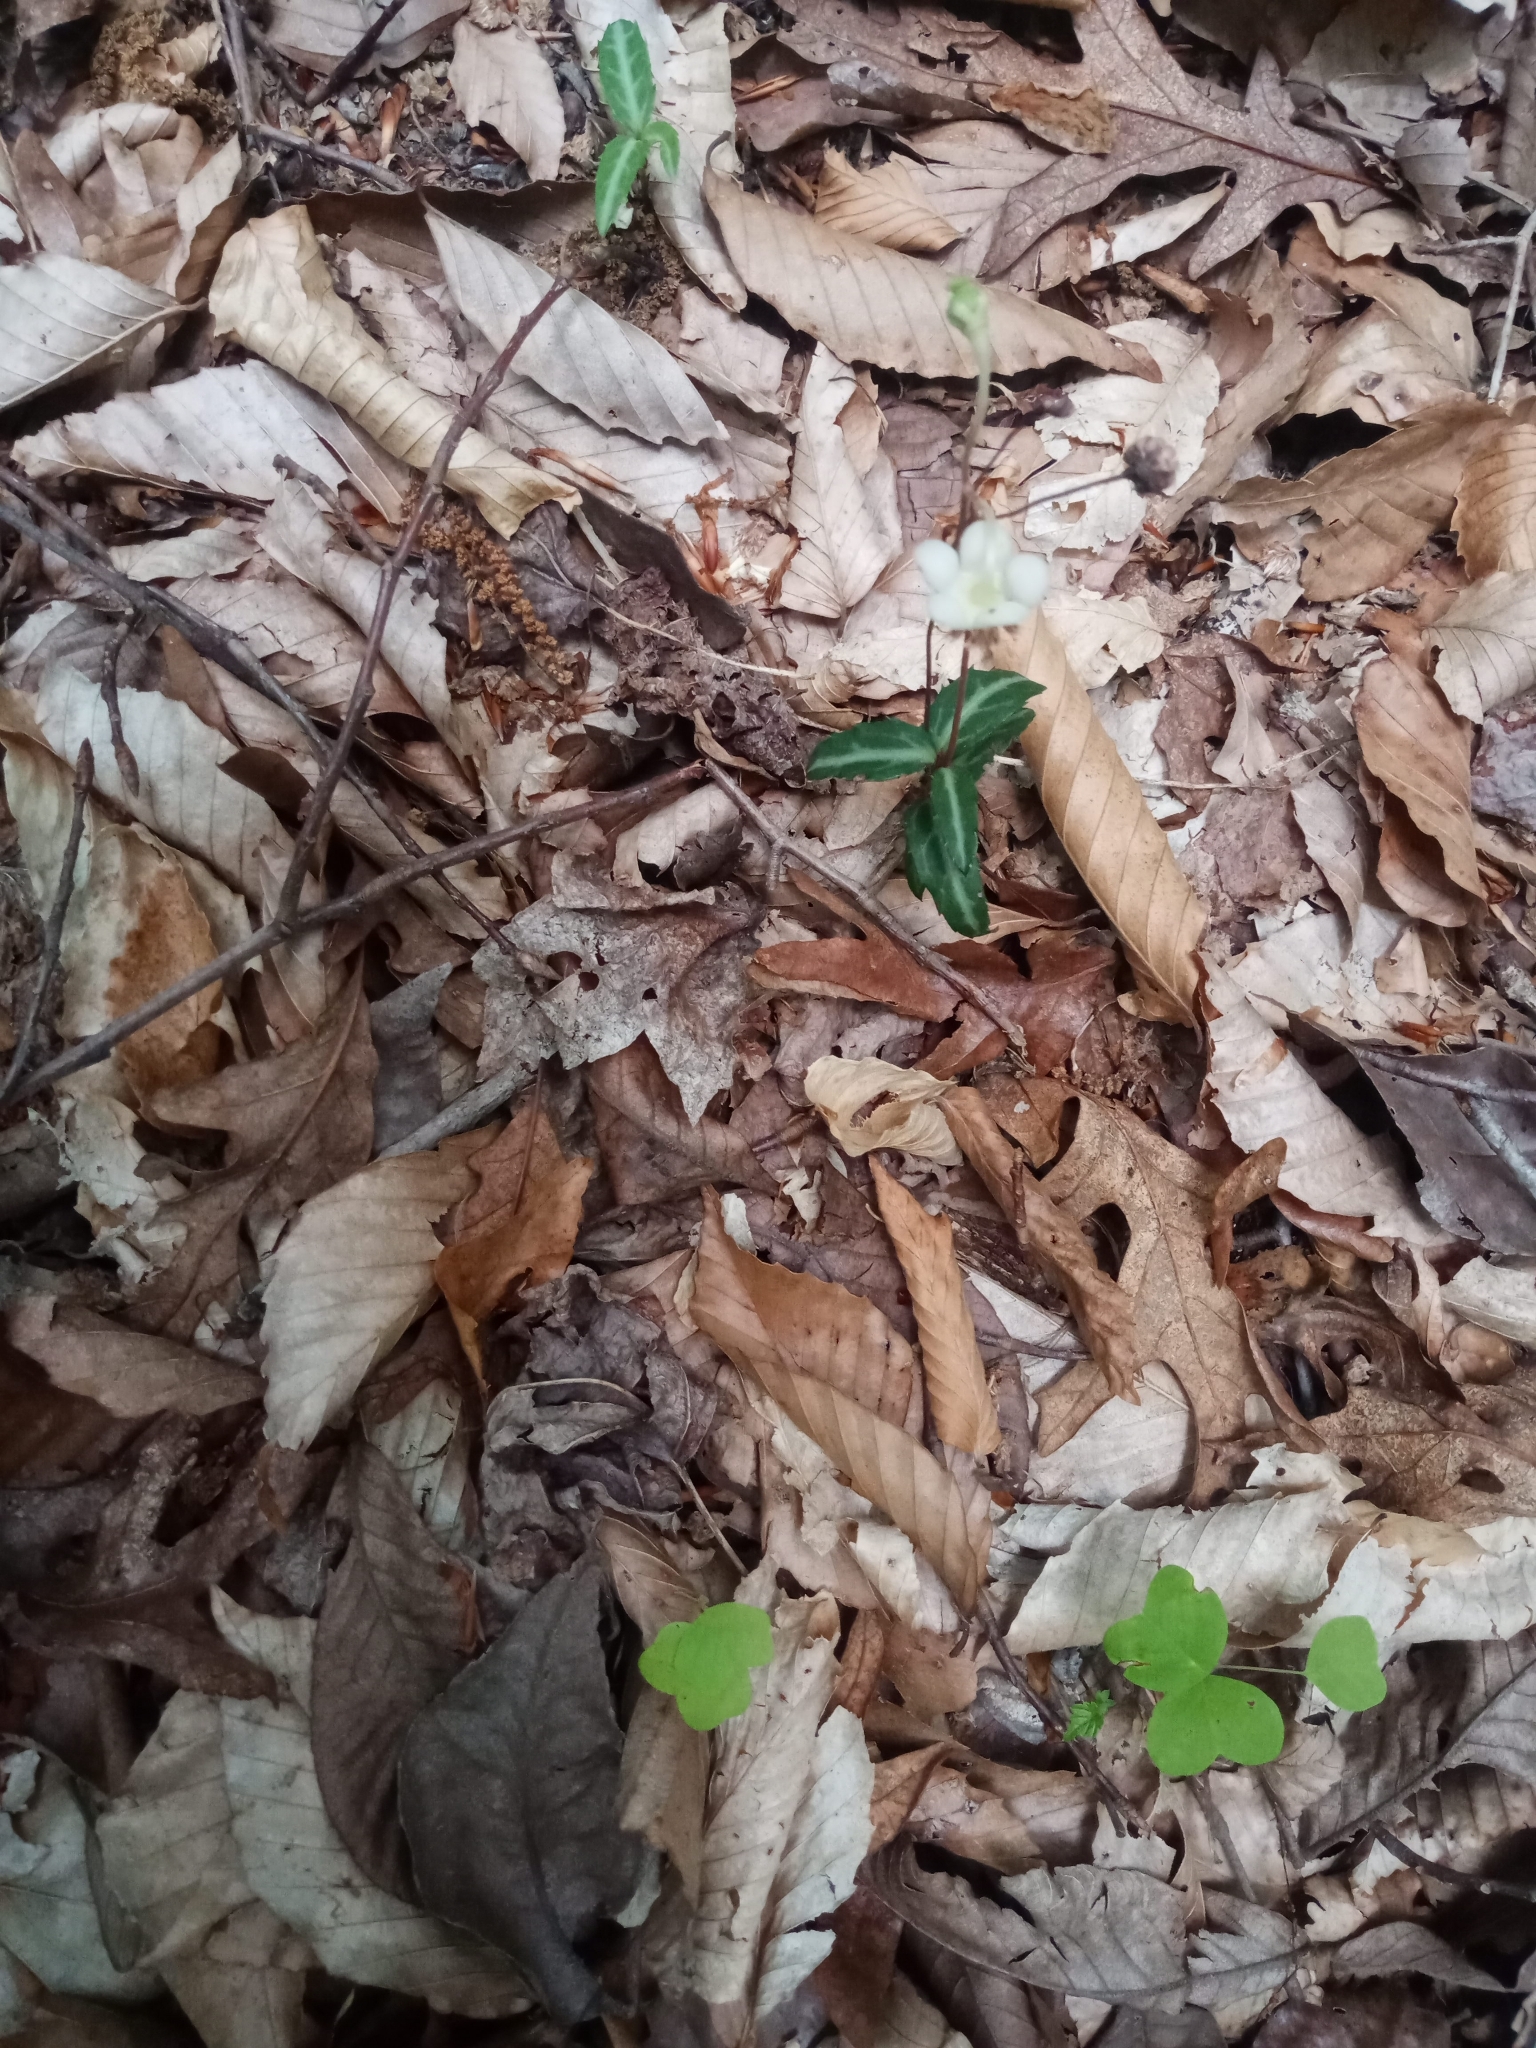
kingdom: Plantae
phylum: Tracheophyta
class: Magnoliopsida
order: Ericales
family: Ericaceae
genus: Chimaphila
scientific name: Chimaphila maculata
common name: Spotted pipsissewa
